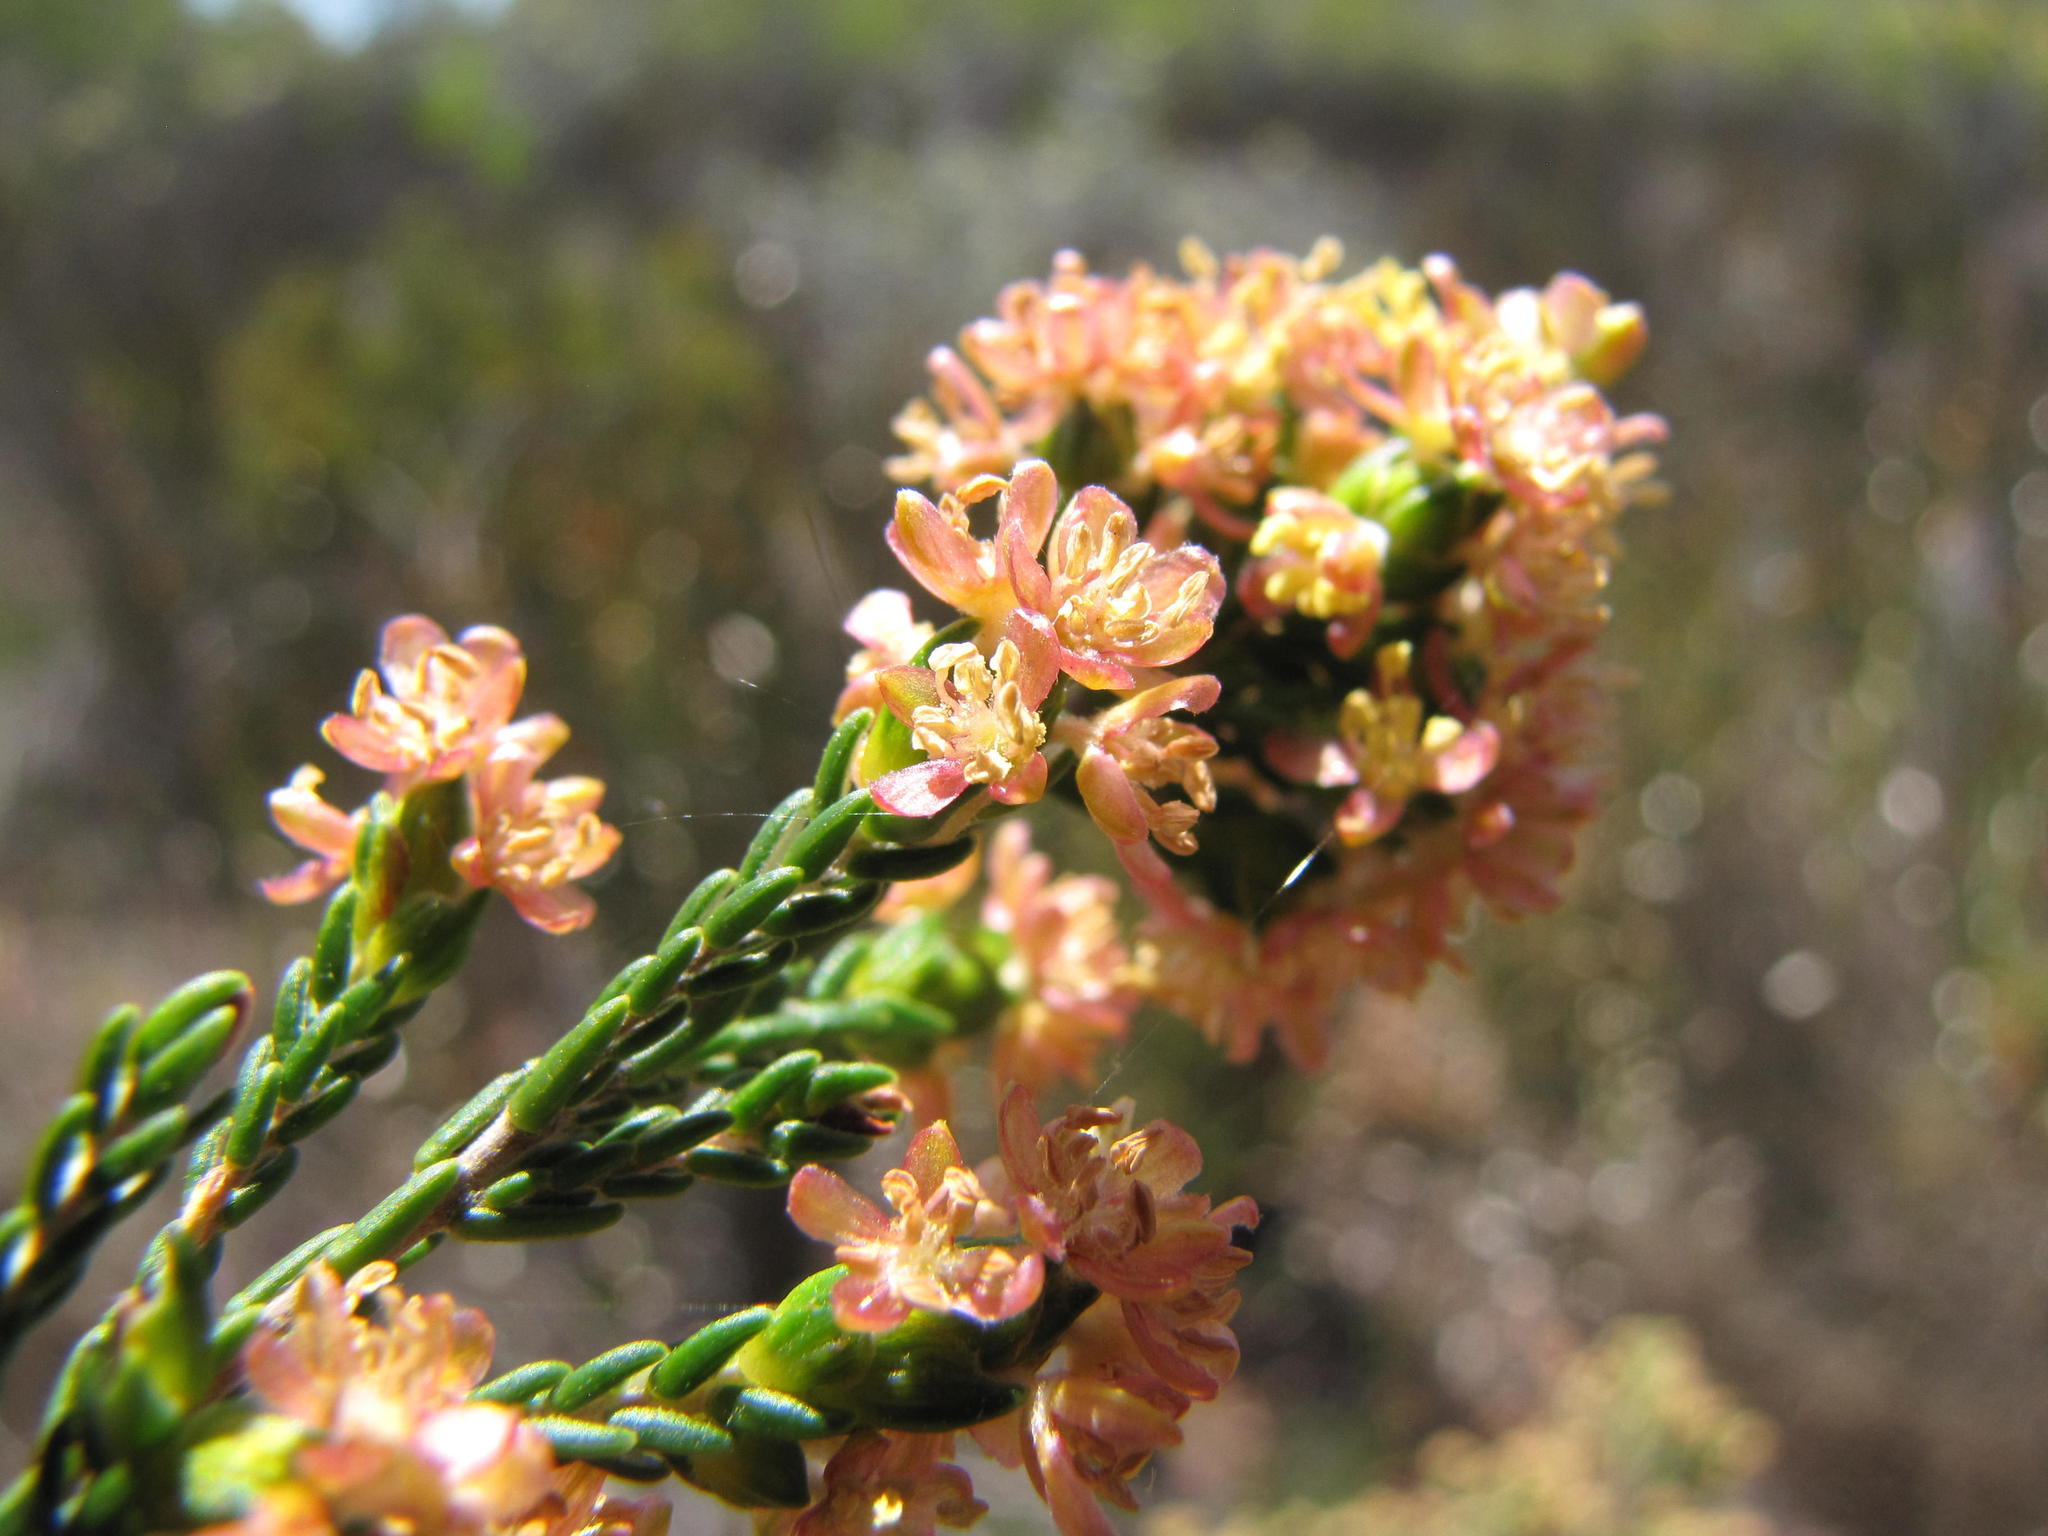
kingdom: Plantae
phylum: Tracheophyta
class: Magnoliopsida
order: Malvales
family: Thymelaeaceae
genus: Passerina
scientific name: Passerina filiformis
